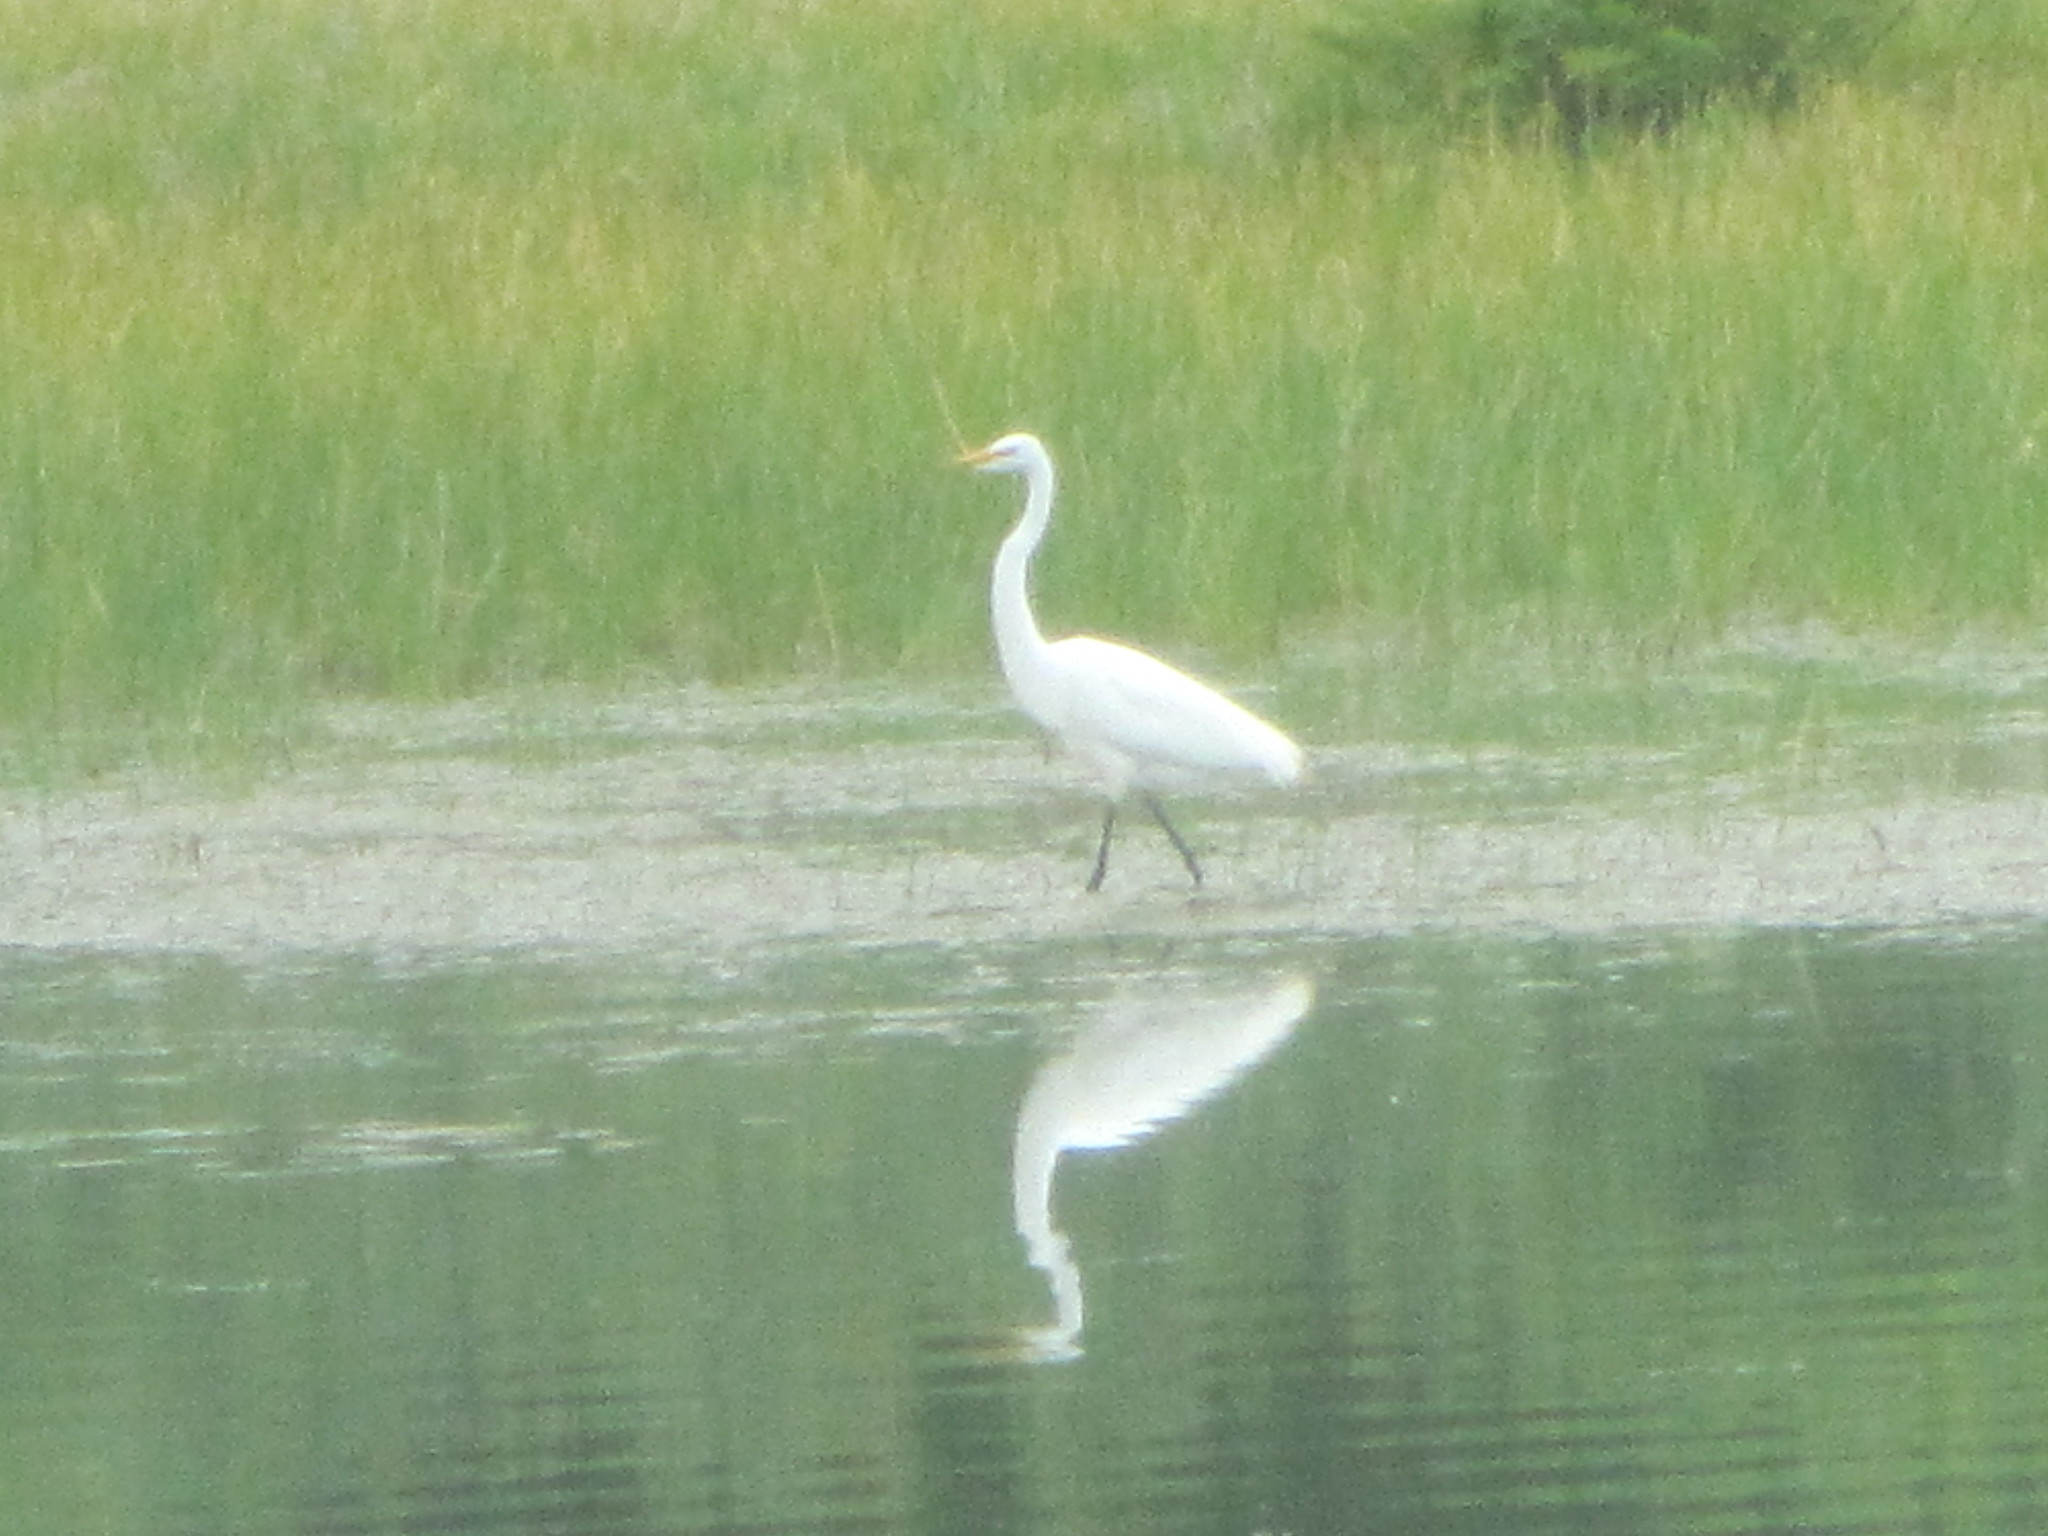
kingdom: Animalia
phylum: Chordata
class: Aves
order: Pelecaniformes
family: Ardeidae
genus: Ardea
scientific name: Ardea alba
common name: Great egret
